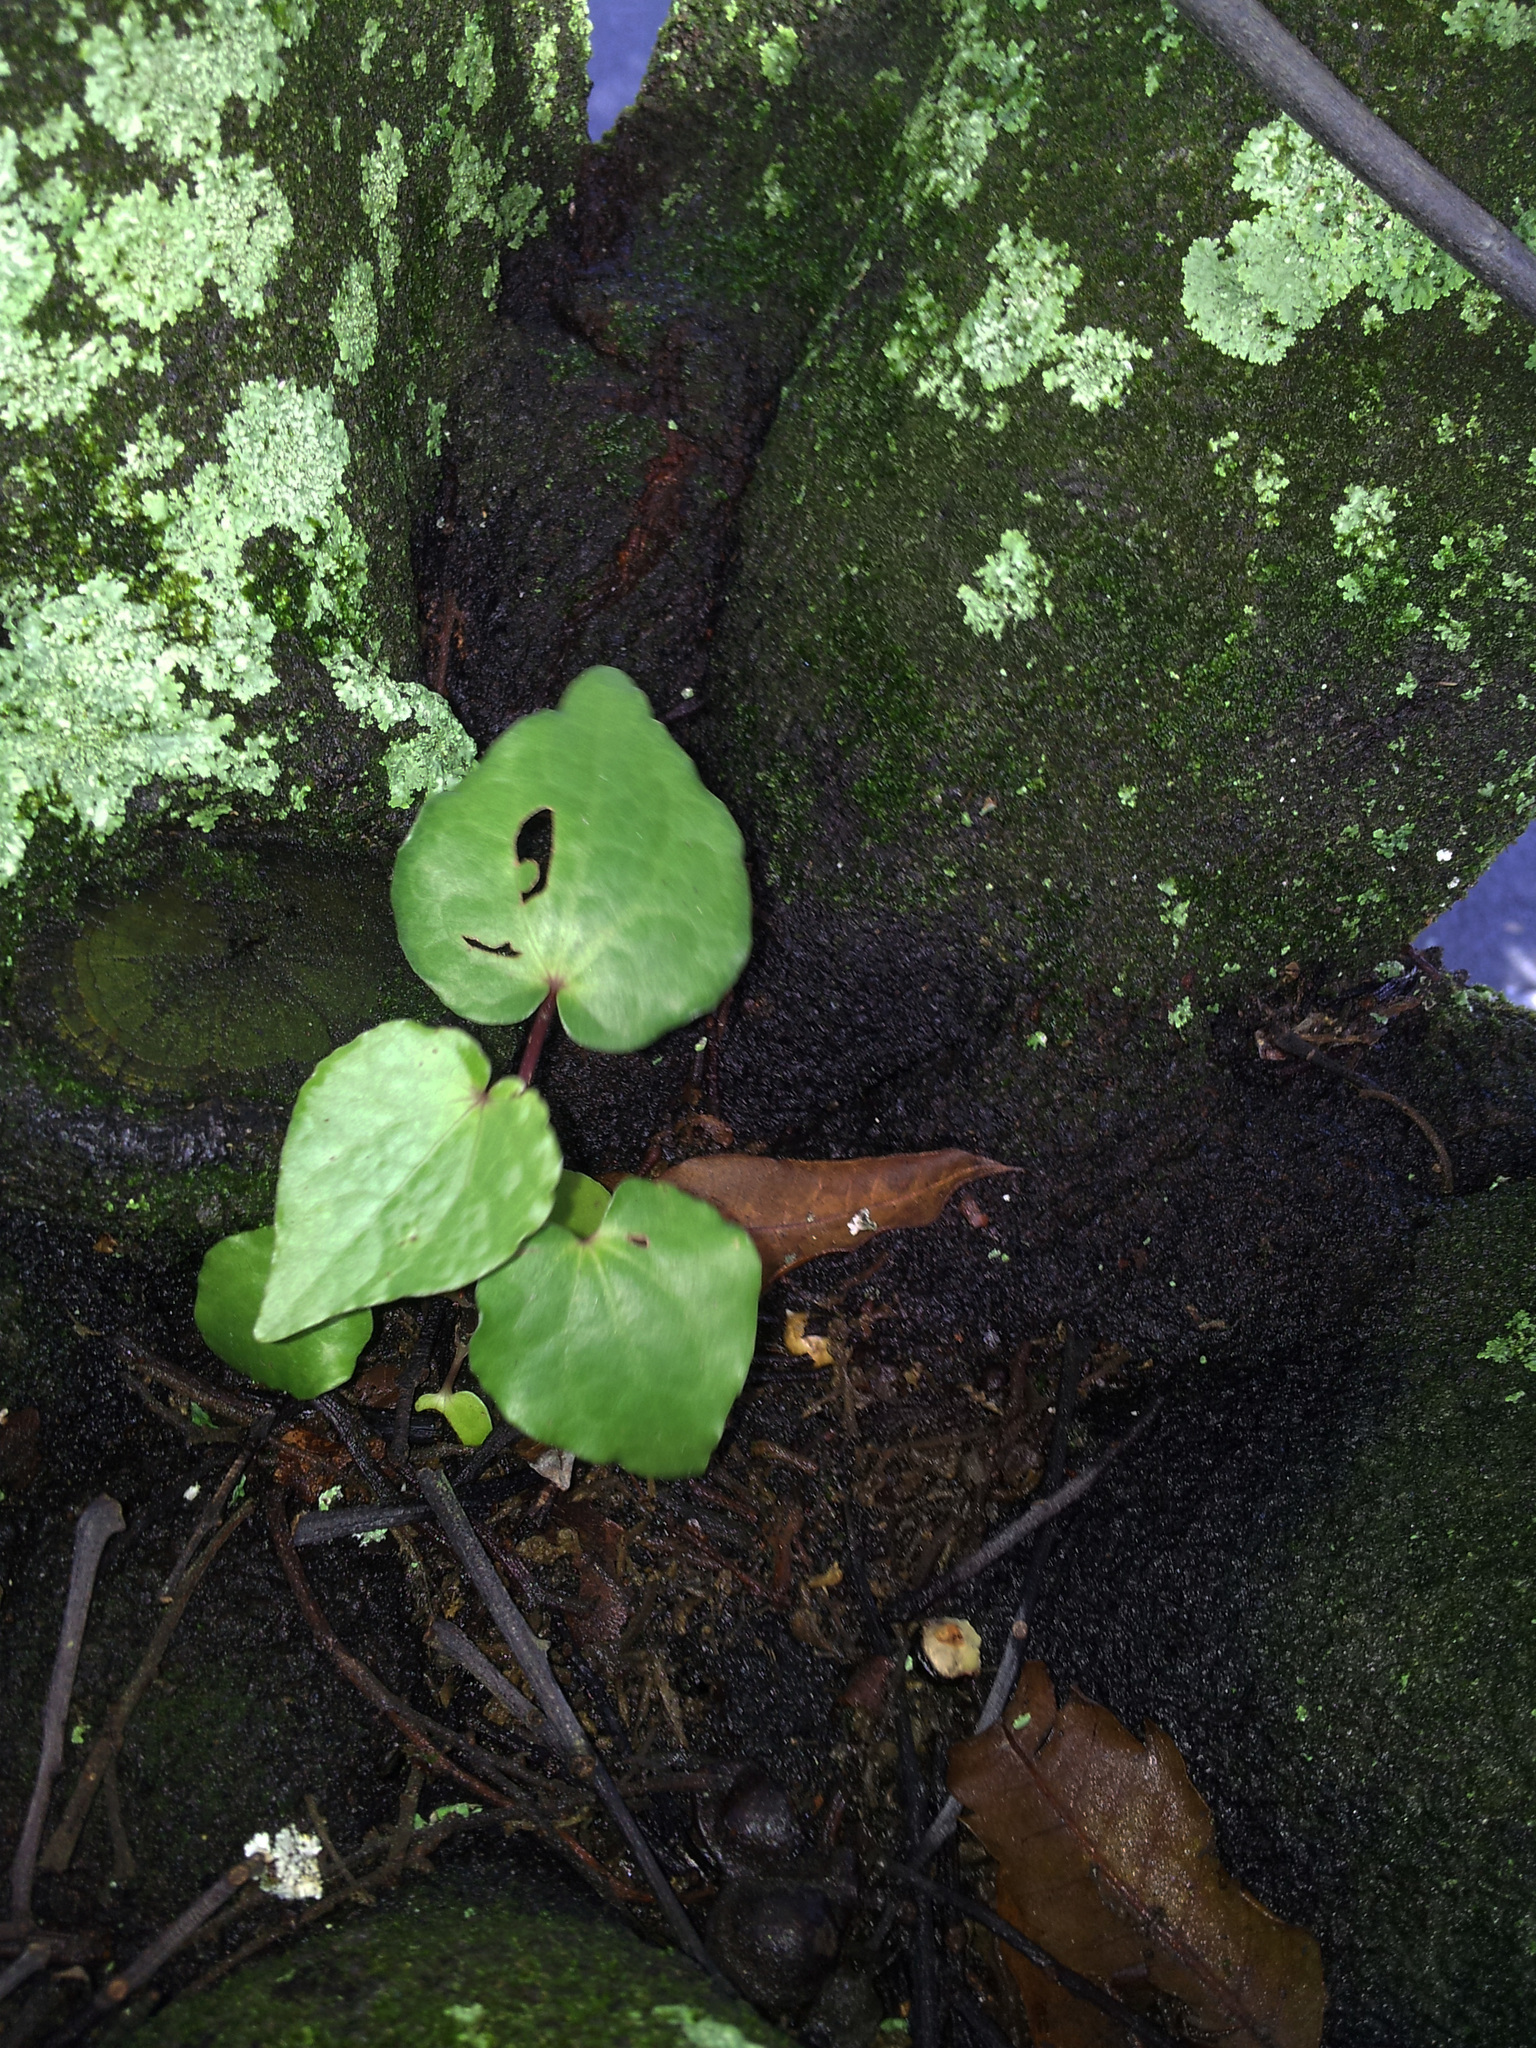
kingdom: Plantae
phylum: Tracheophyta
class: Magnoliopsida
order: Piperales
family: Piperaceae
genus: Macropiper
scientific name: Macropiper excelsum
